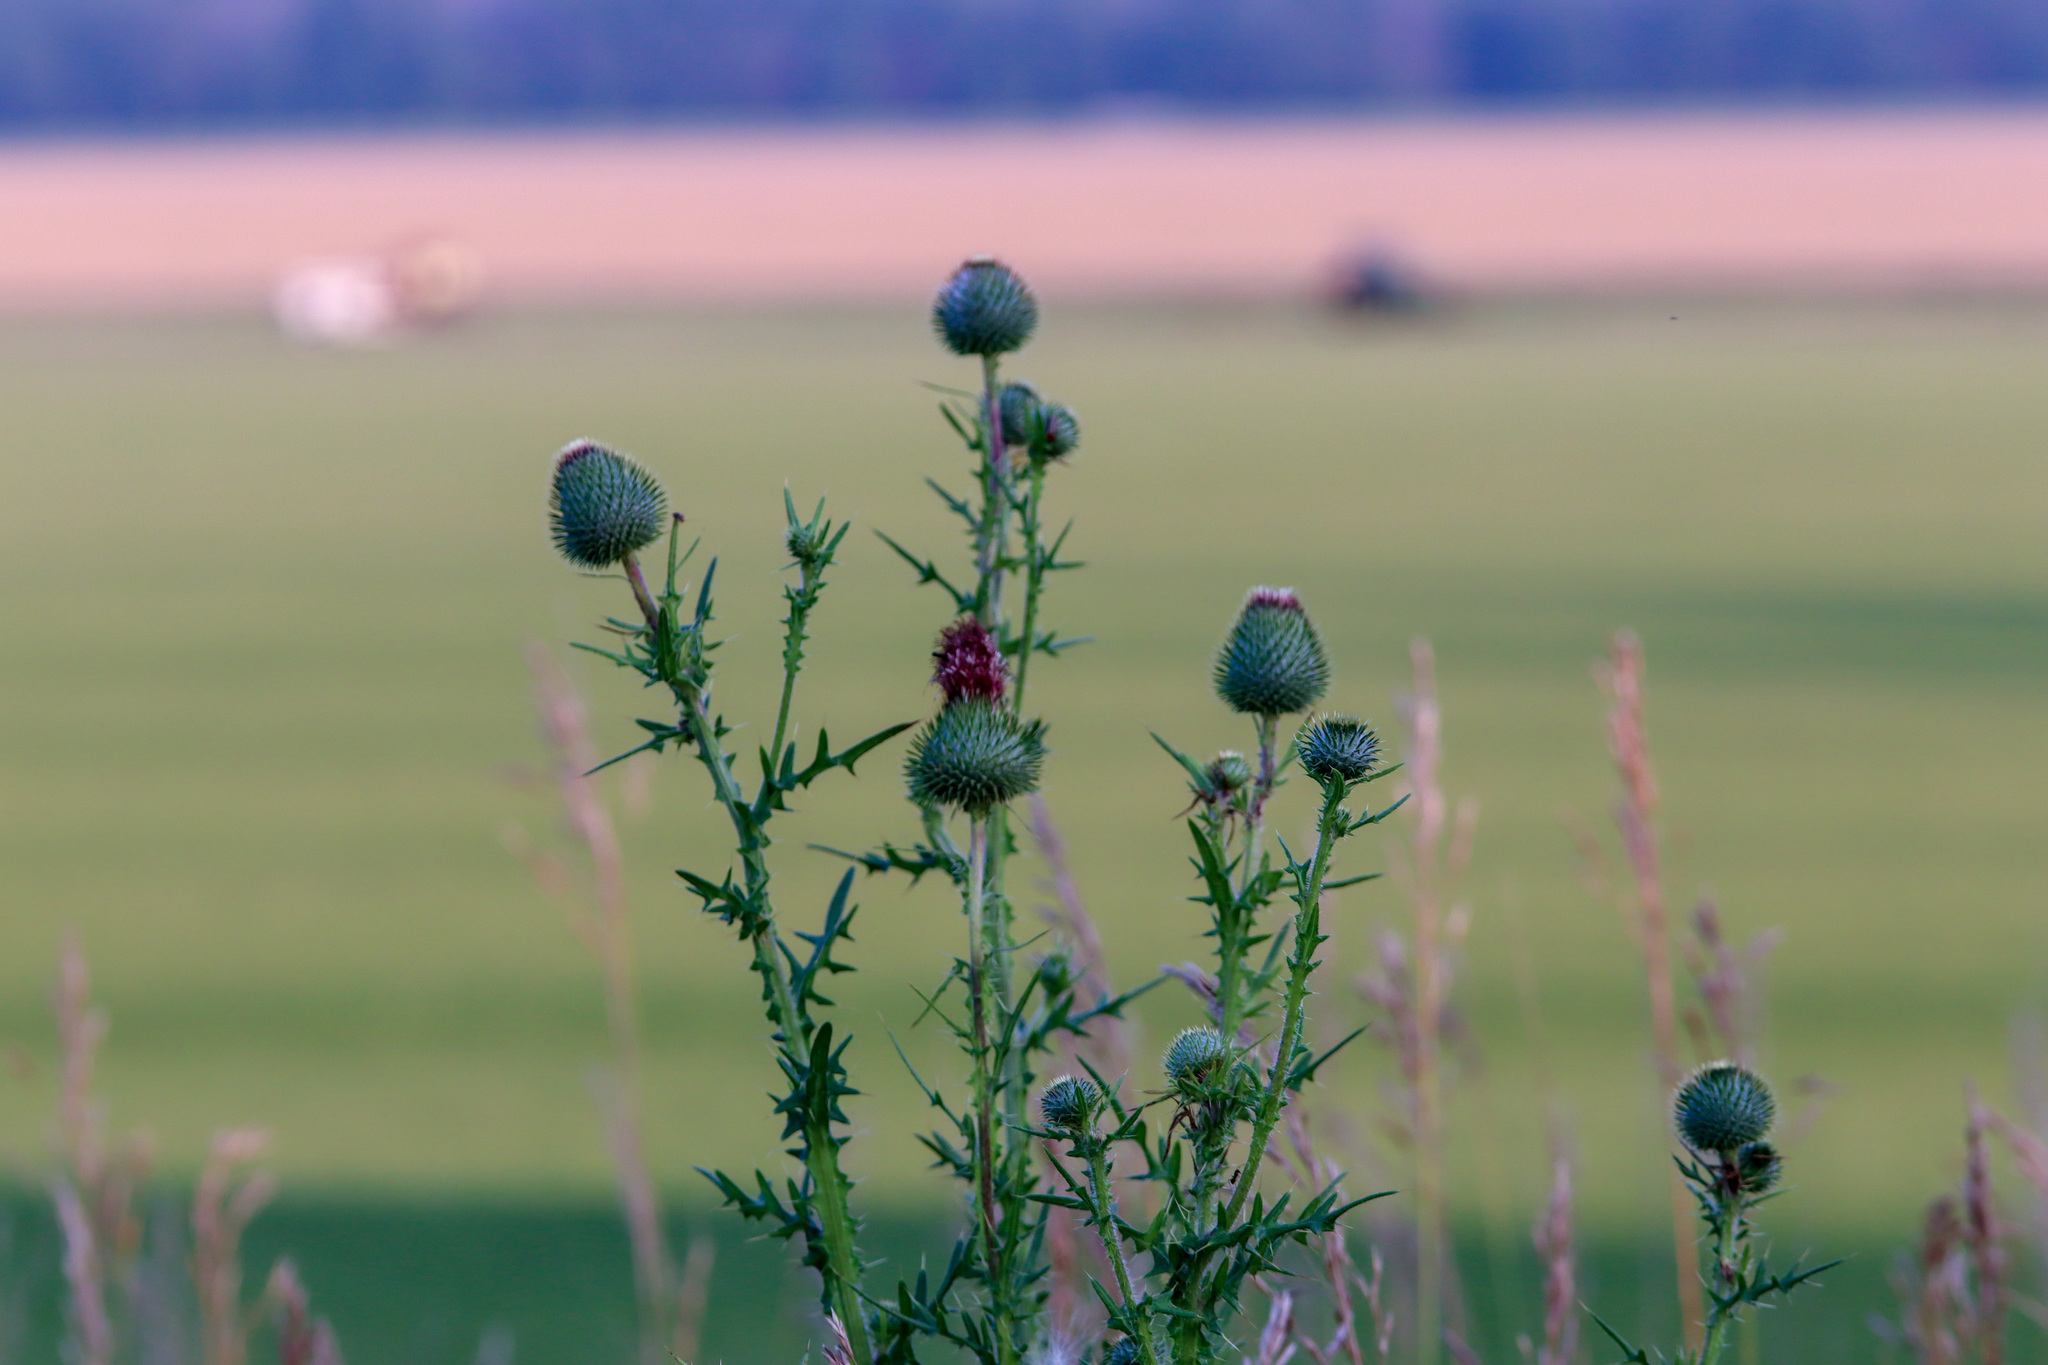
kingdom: Plantae
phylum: Tracheophyta
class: Magnoliopsida
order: Asterales
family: Asteraceae
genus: Cirsium
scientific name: Cirsium vulgare
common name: Bull thistle
